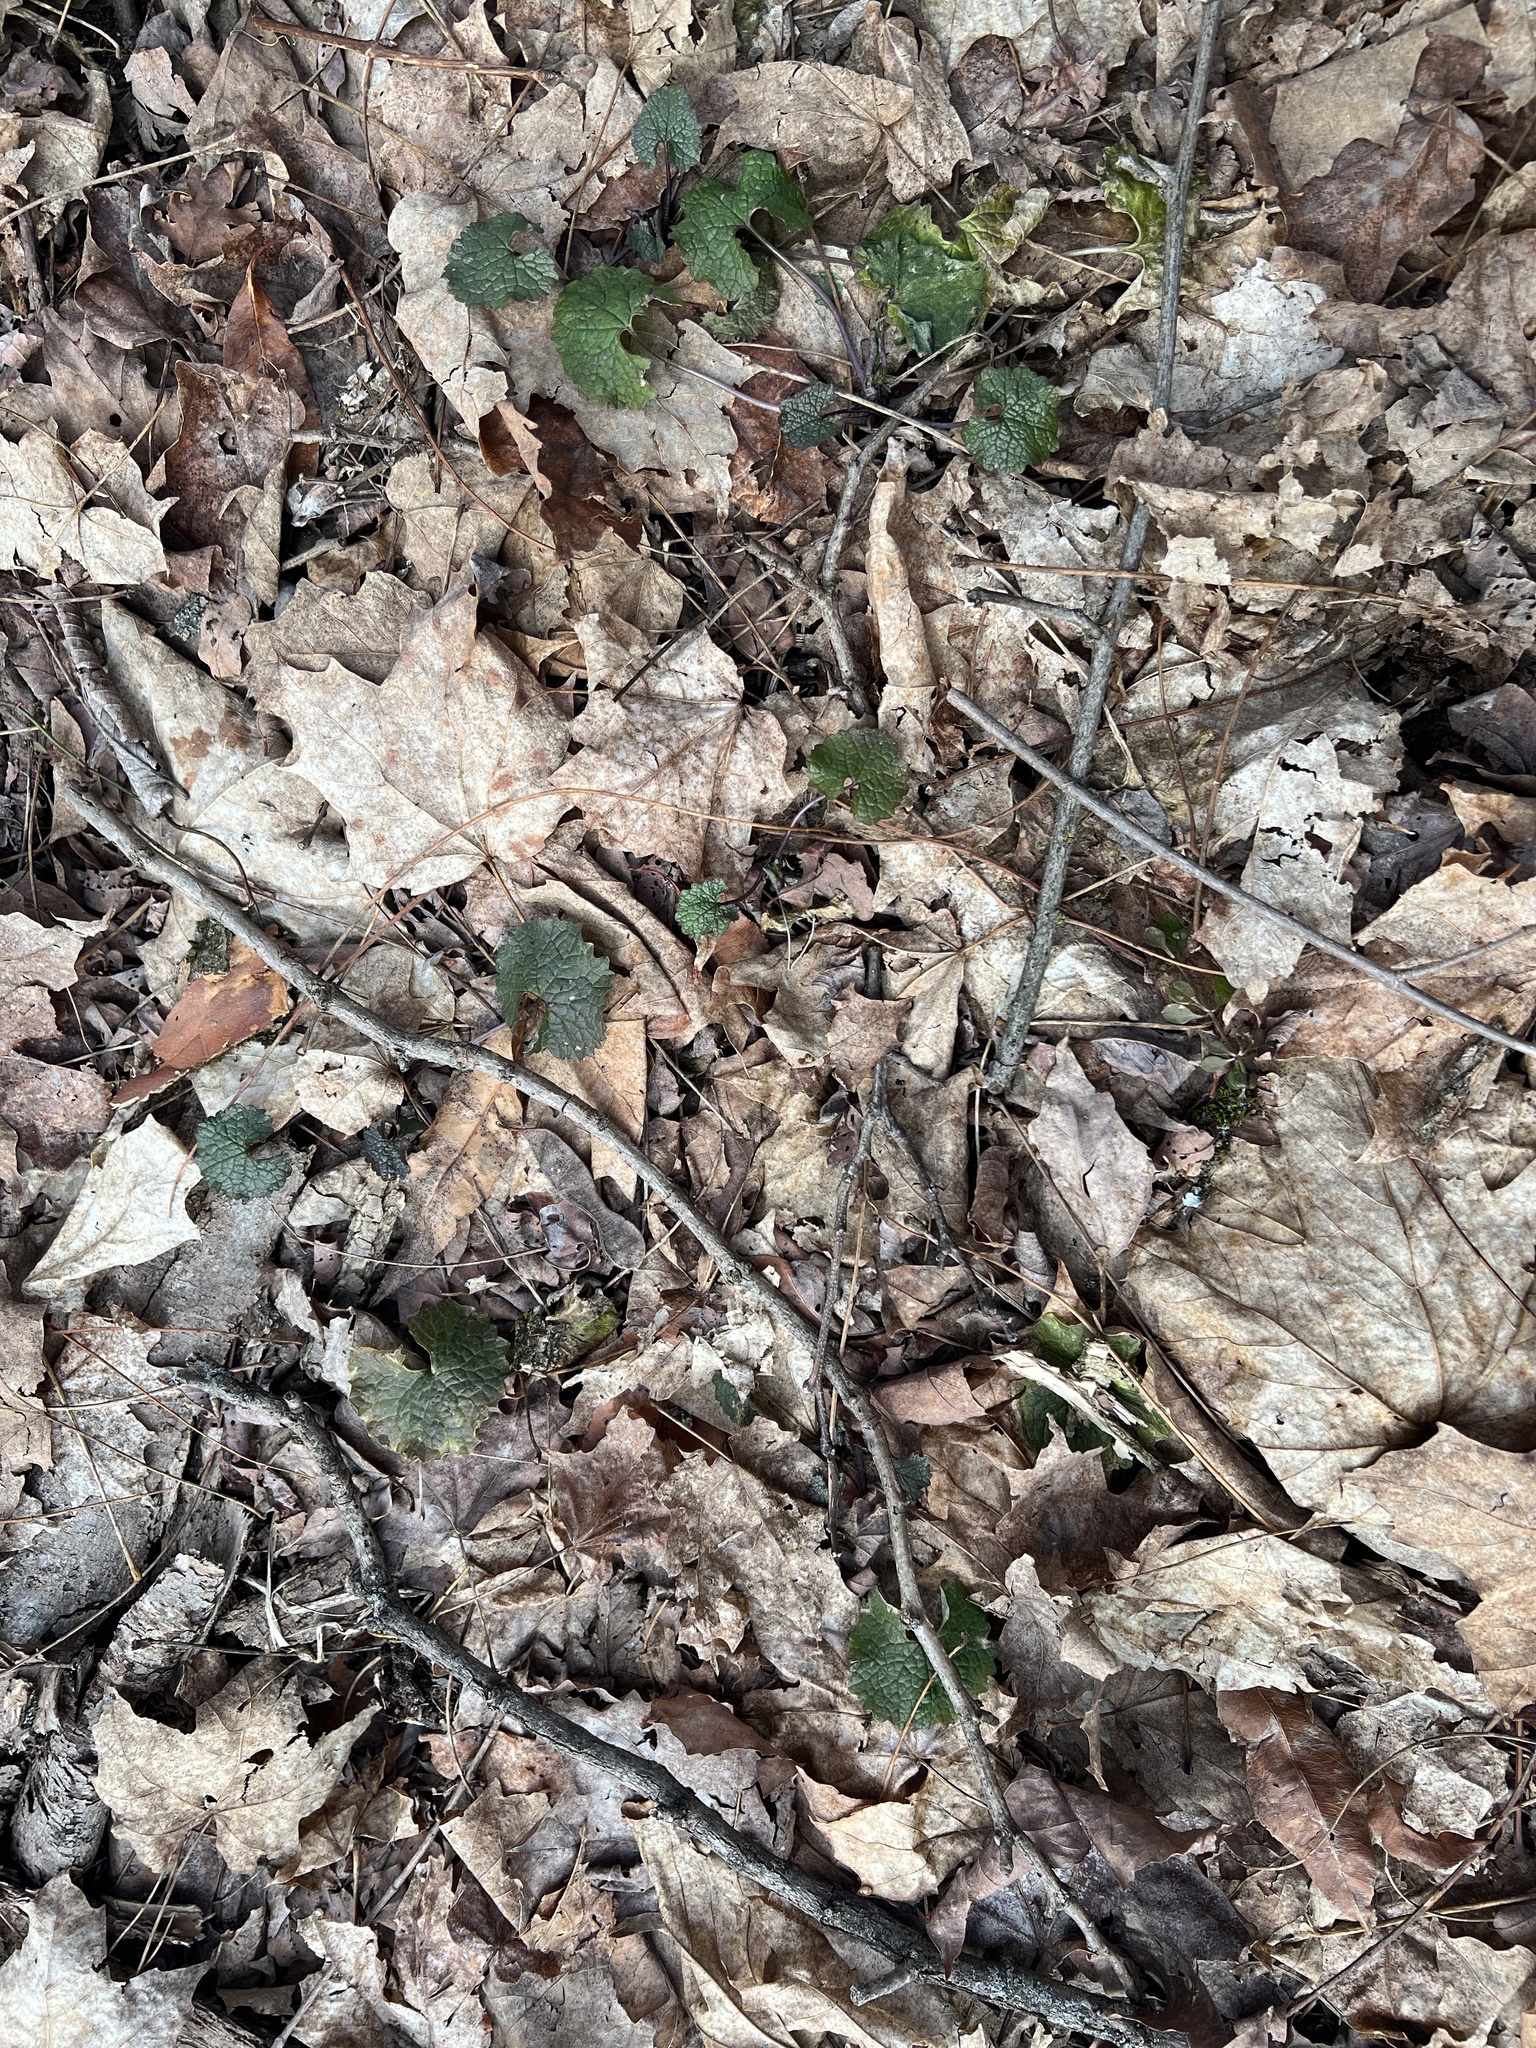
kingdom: Plantae
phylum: Tracheophyta
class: Magnoliopsida
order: Brassicales
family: Brassicaceae
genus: Alliaria
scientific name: Alliaria petiolata
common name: Garlic mustard
